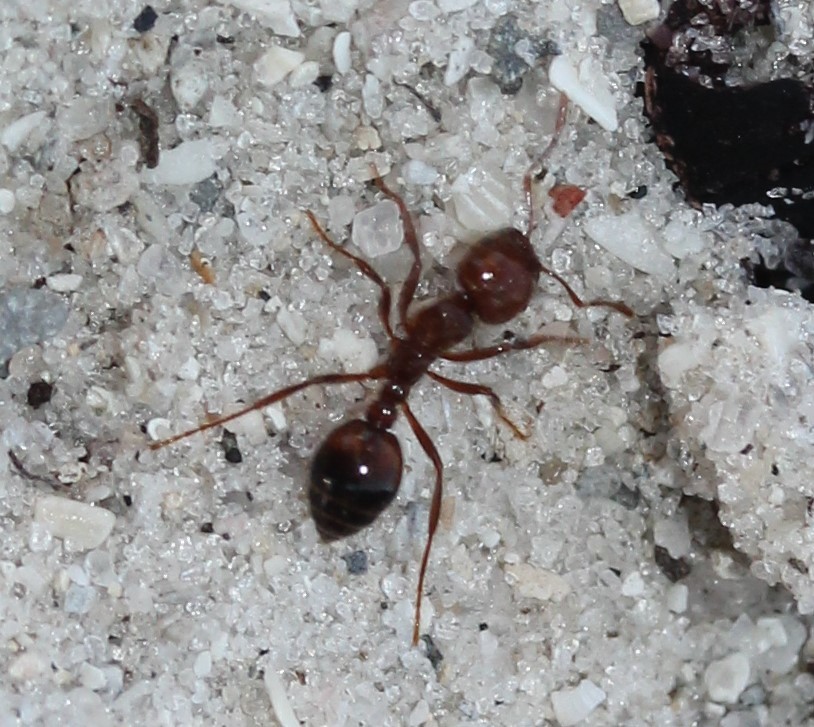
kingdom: Animalia
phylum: Arthropoda
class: Insecta
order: Hymenoptera
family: Formicidae
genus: Solenopsis
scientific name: Solenopsis invicta
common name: Red imported fire ant
